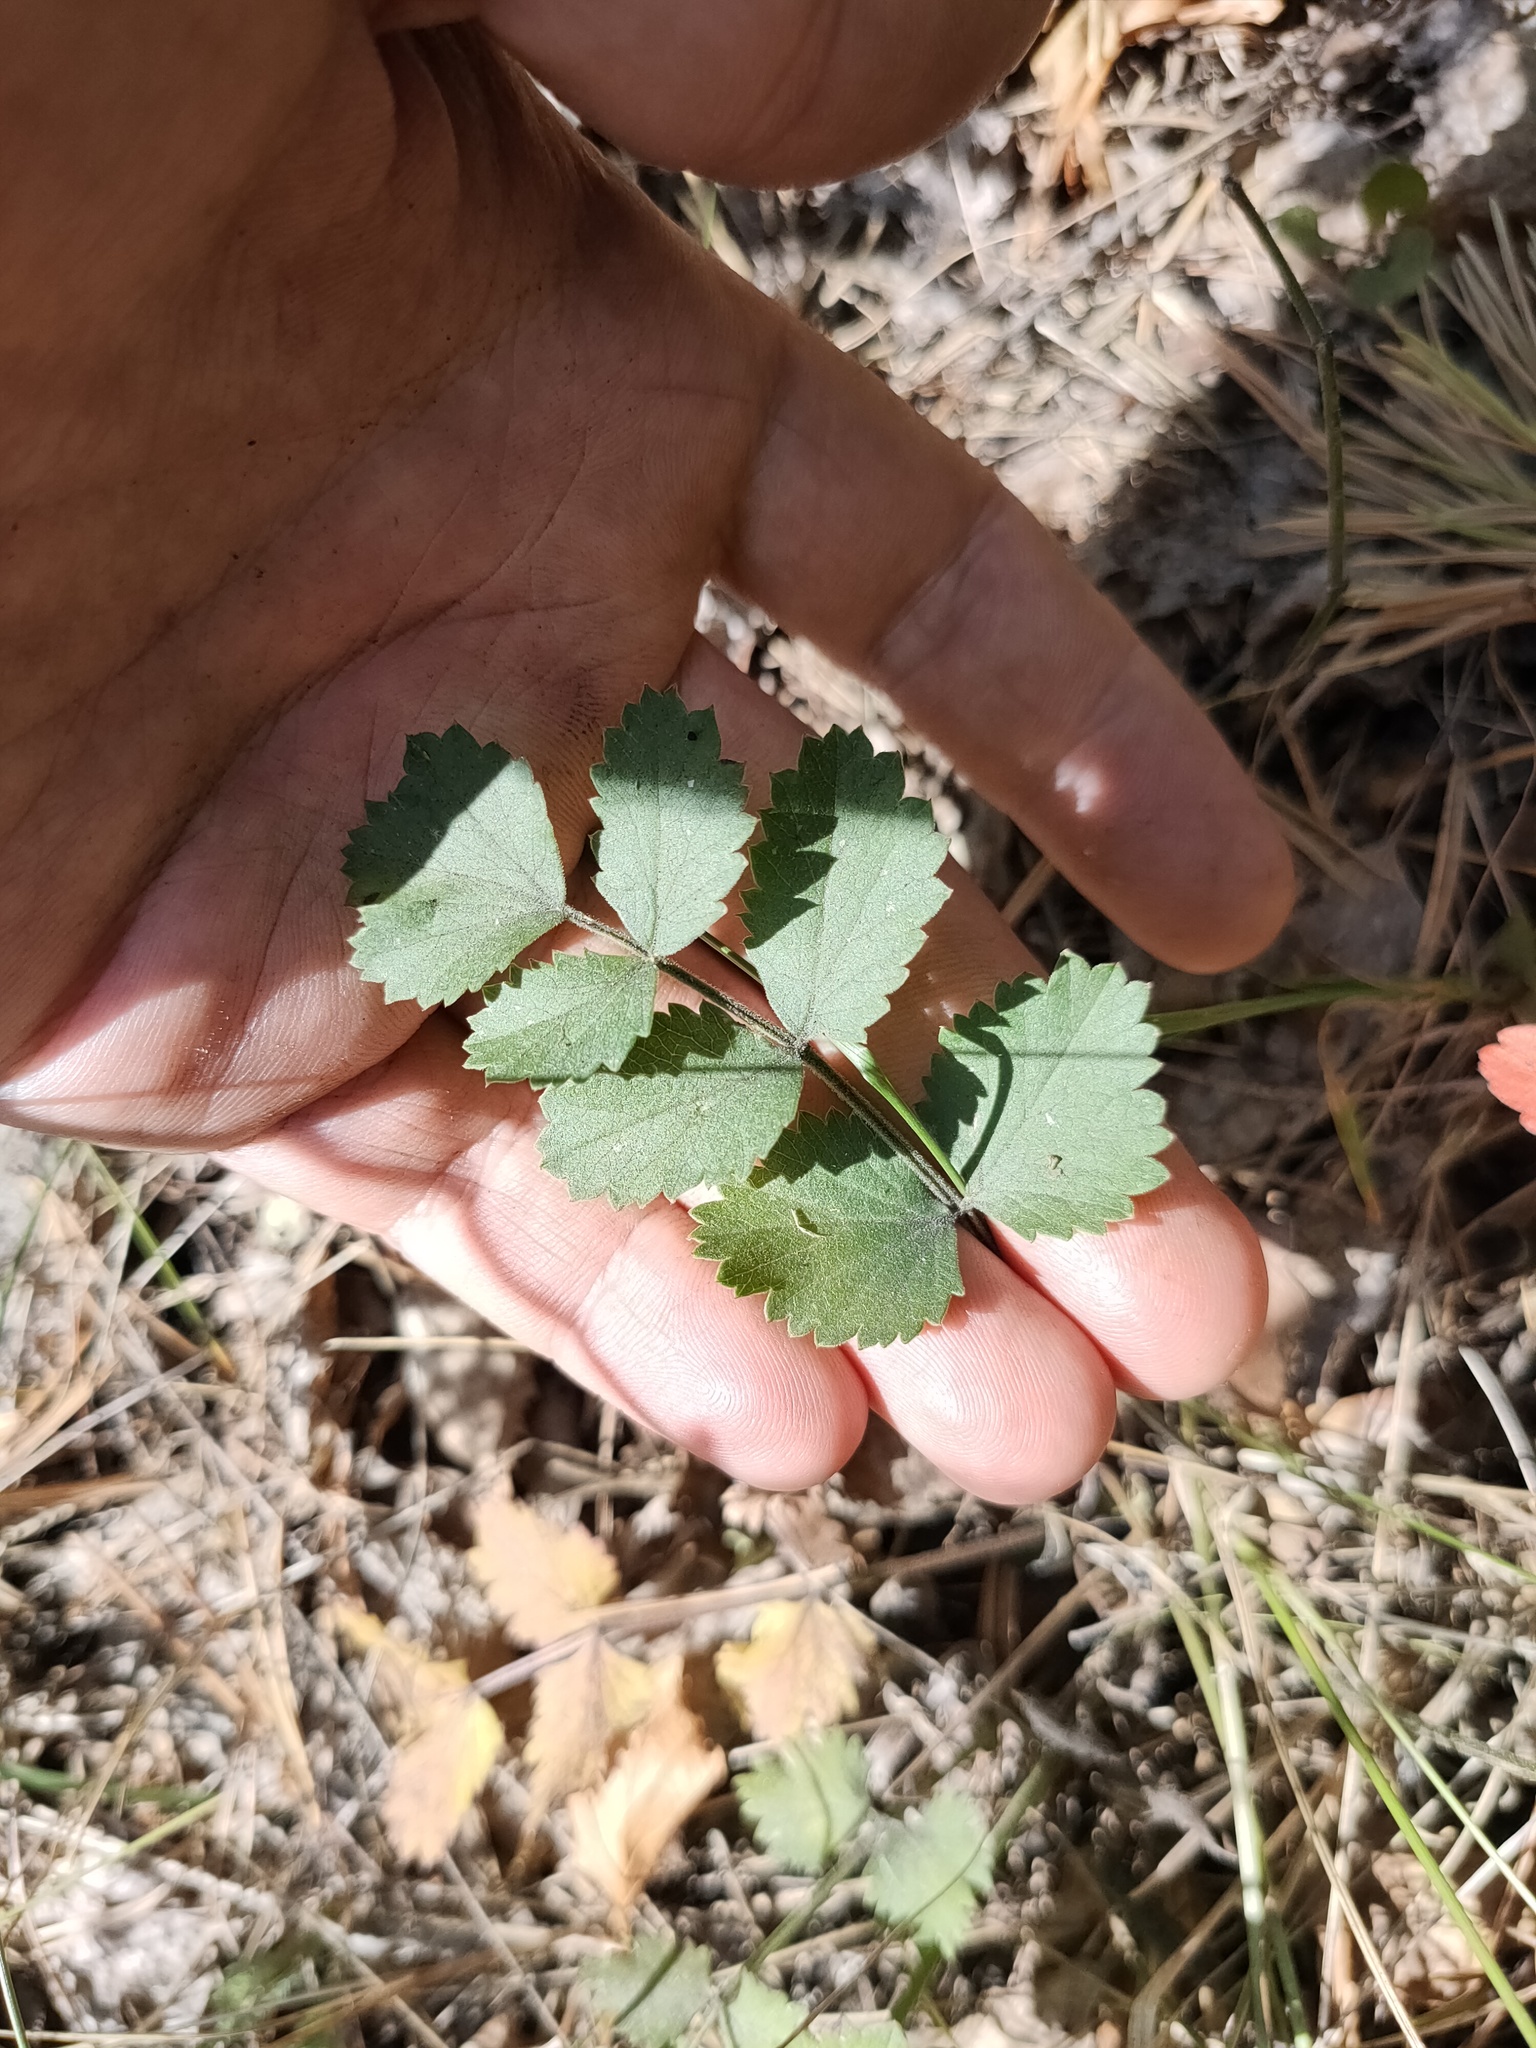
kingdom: Plantae
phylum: Tracheophyta
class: Magnoliopsida
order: Apiales
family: Apiaceae
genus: Pimpinella
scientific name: Pimpinella saxifraga
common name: Burnet-saxifrage
